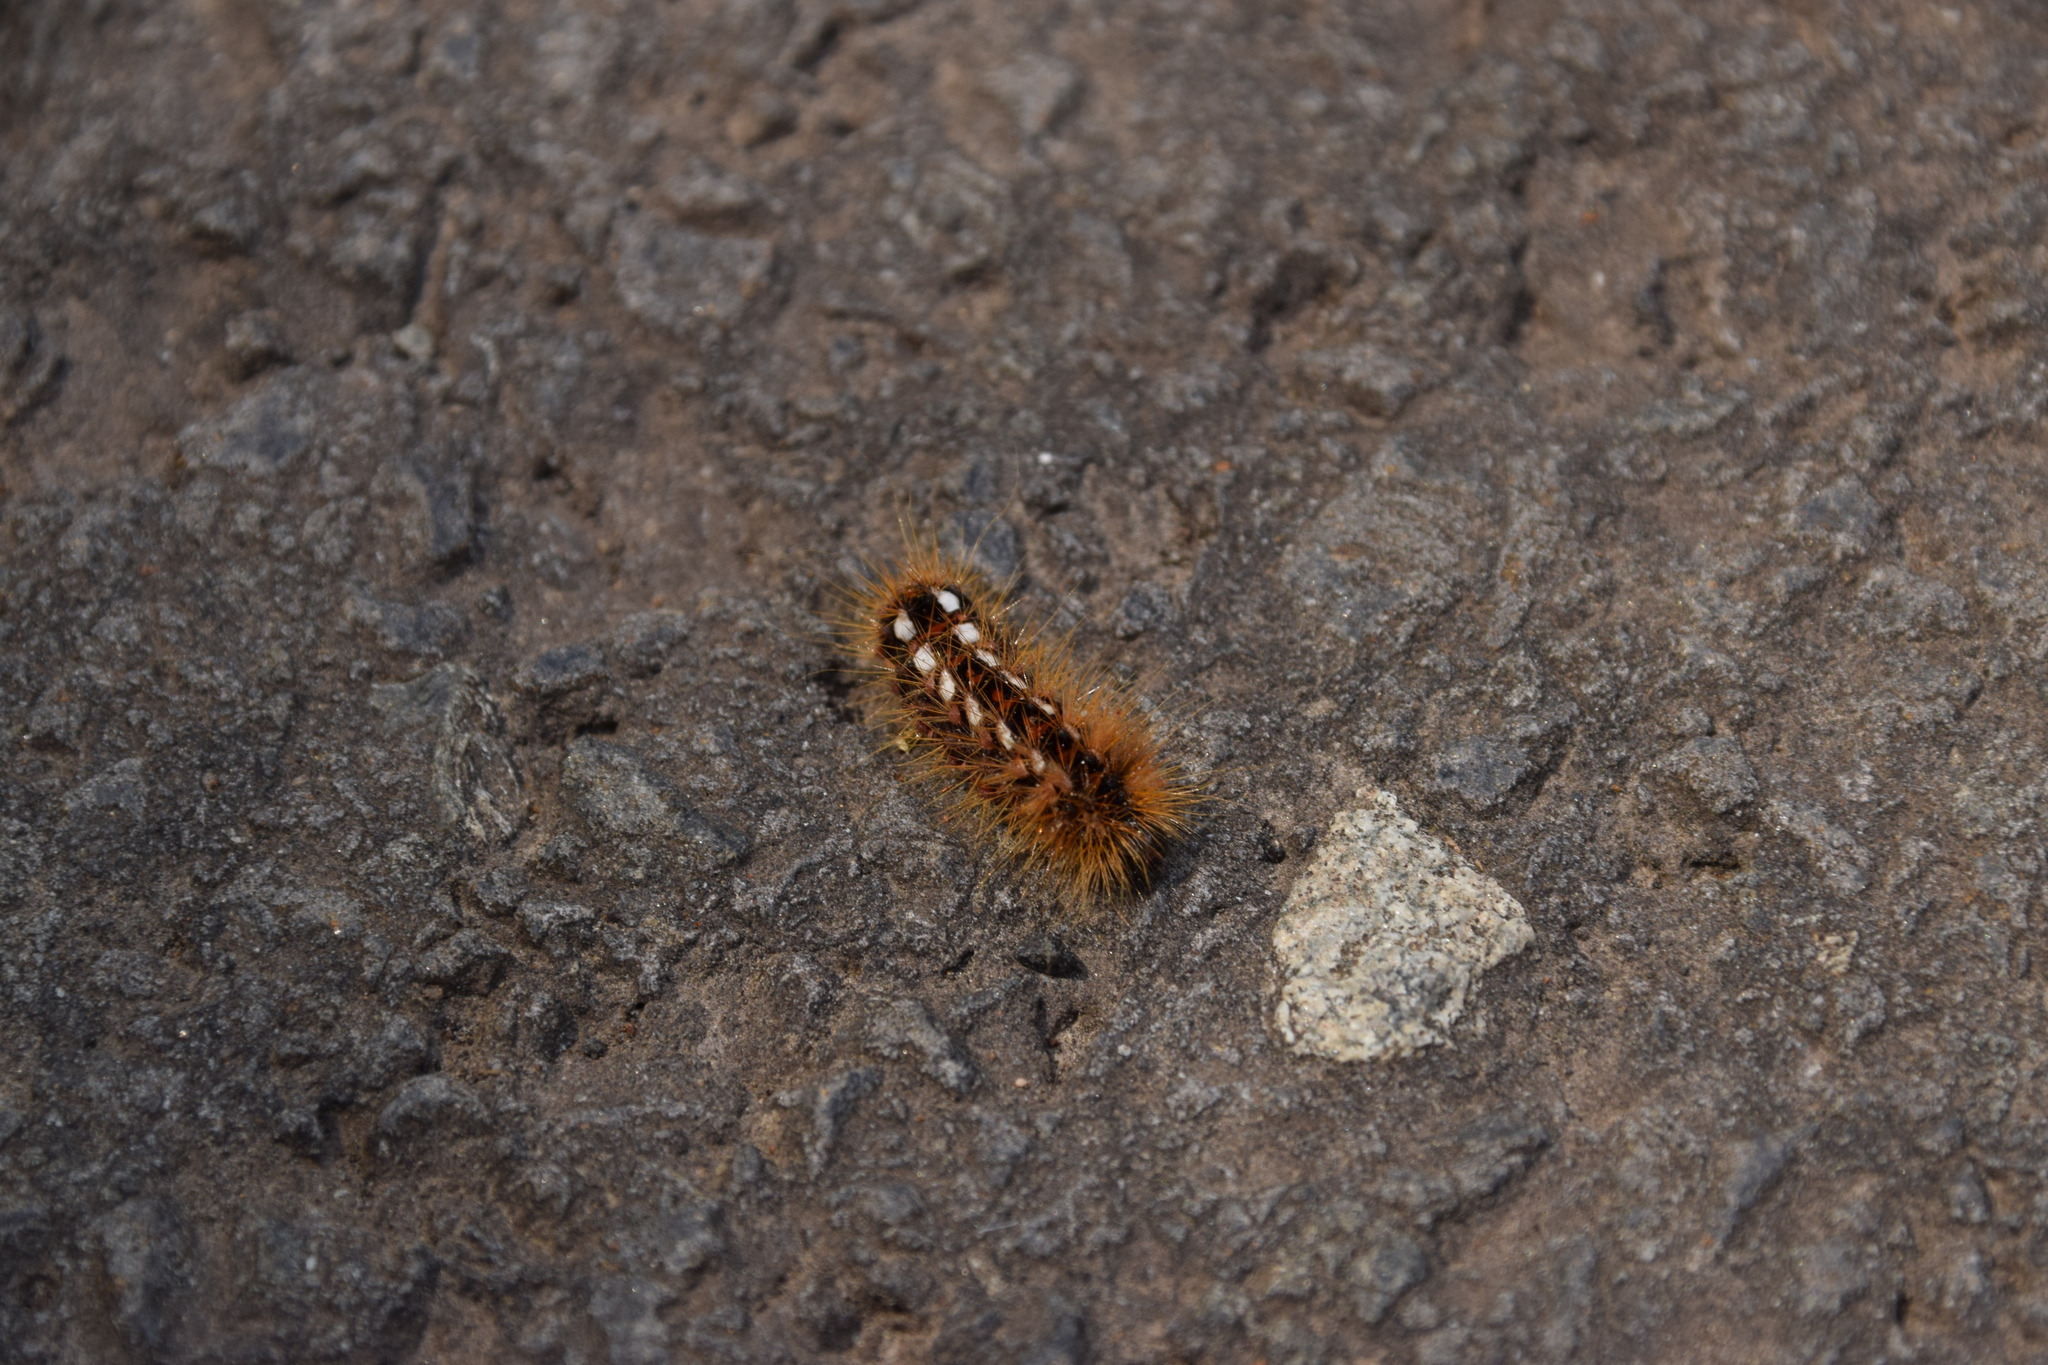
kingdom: Animalia
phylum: Arthropoda
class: Insecta
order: Lepidoptera
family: Noctuidae
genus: Acronicta
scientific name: Acronicta rumicis
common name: Knot grass
